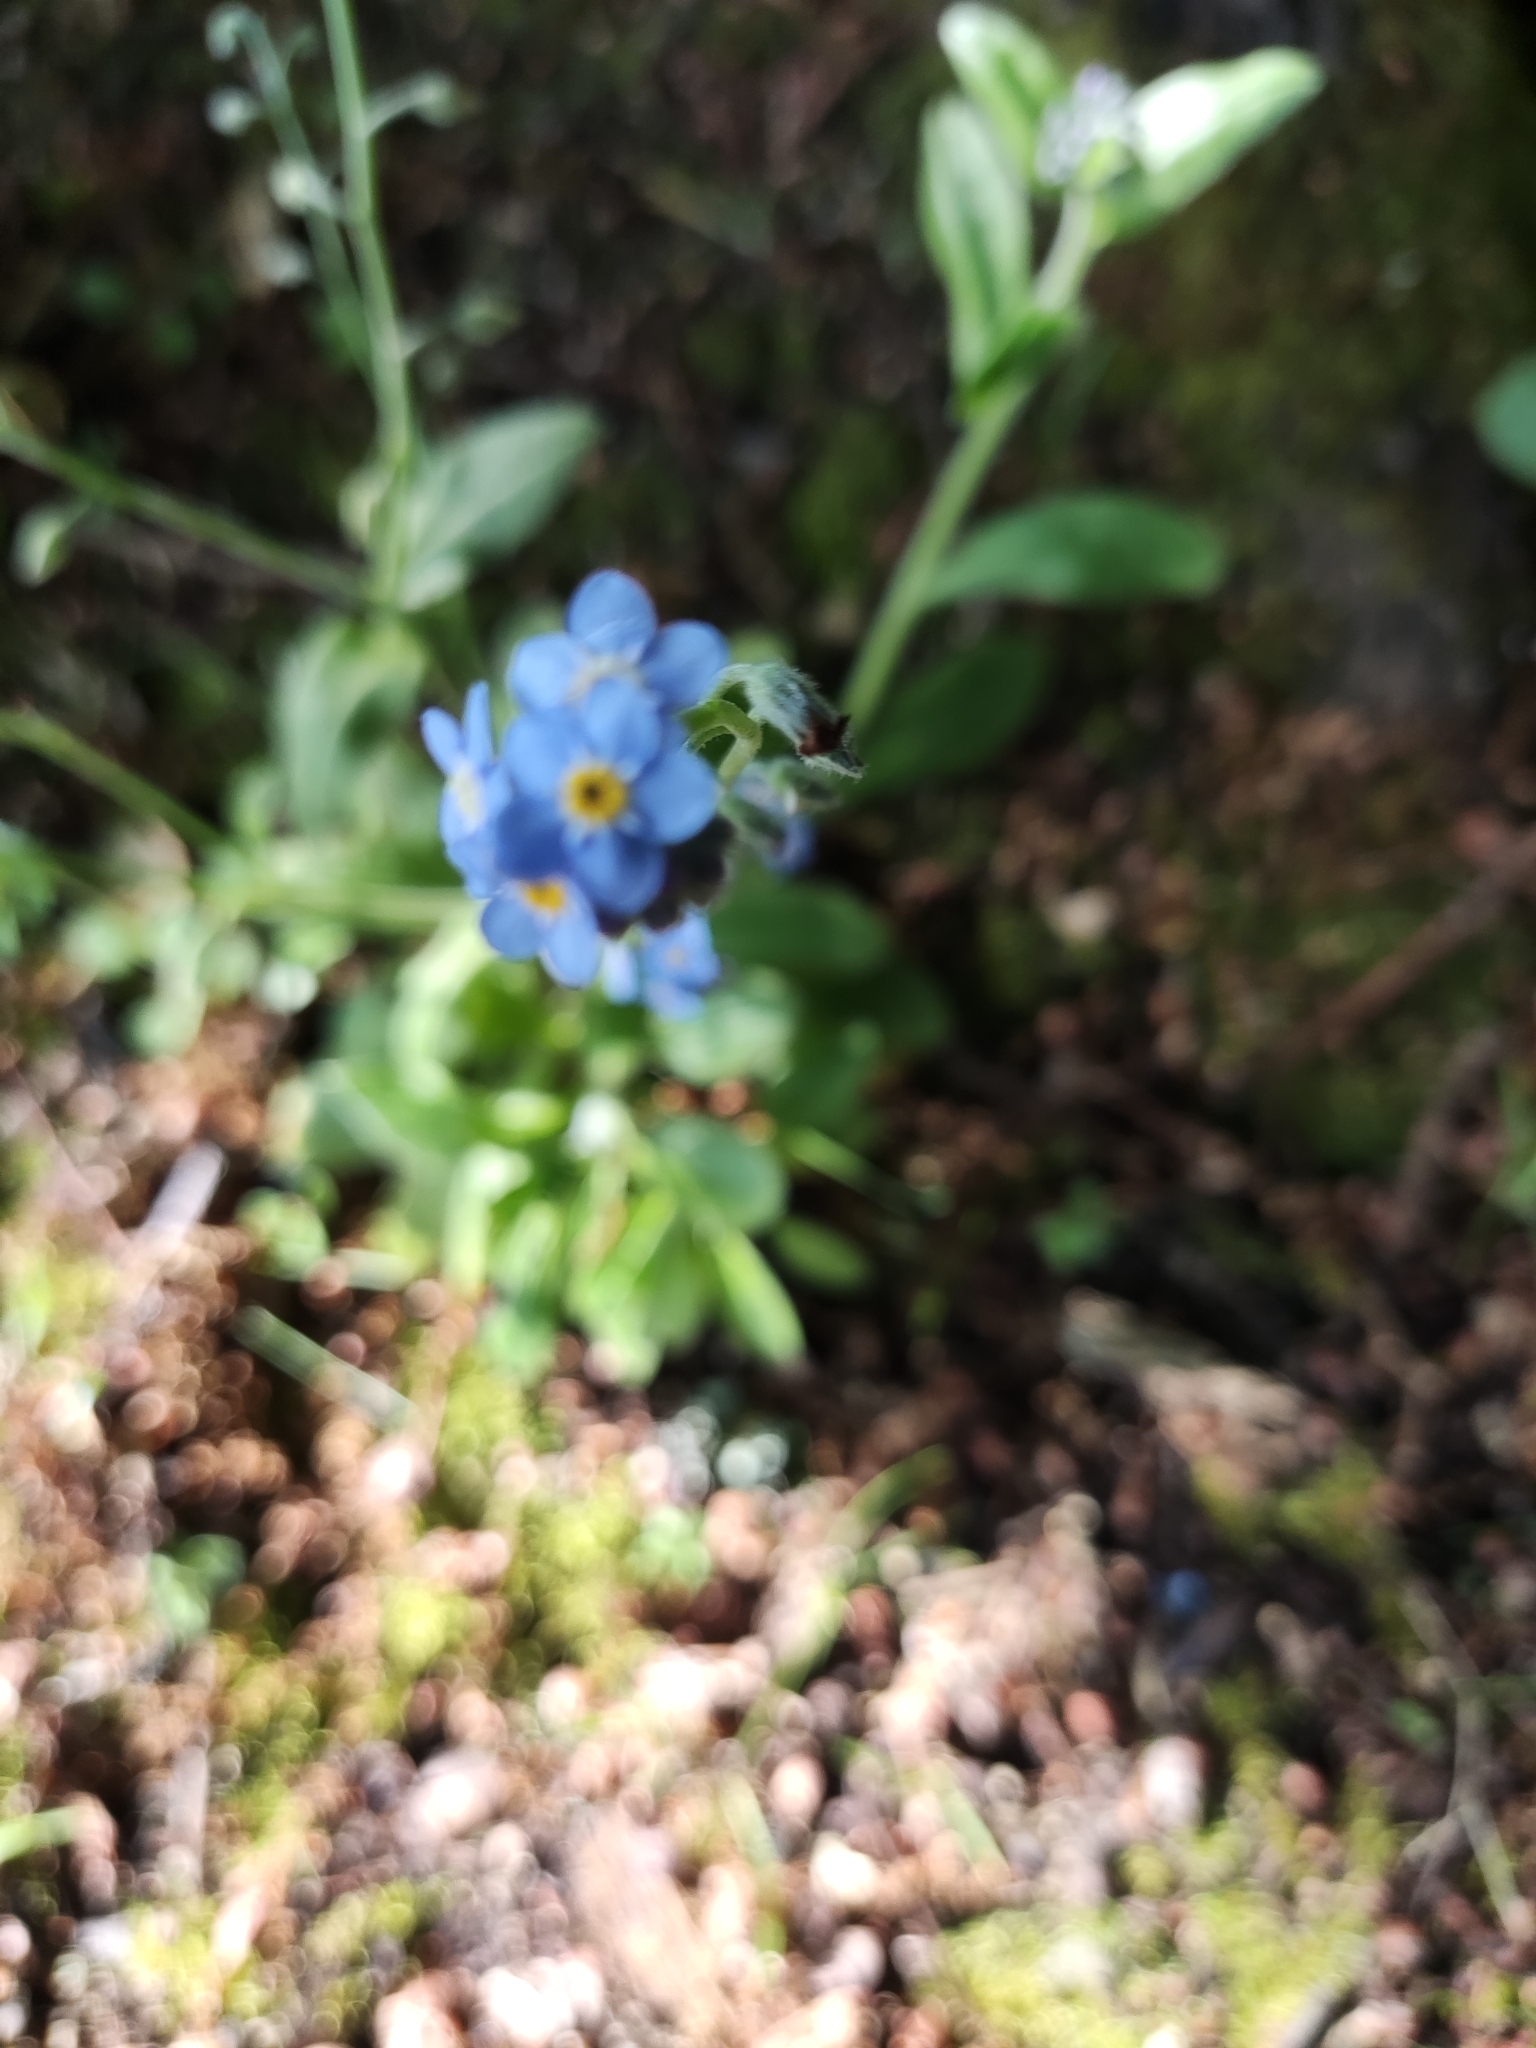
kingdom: Plantae
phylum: Tracheophyta
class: Magnoliopsida
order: Boraginales
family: Boraginaceae
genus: Myosotis
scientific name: Myosotis sylvatica
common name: Wood forget-me-not
